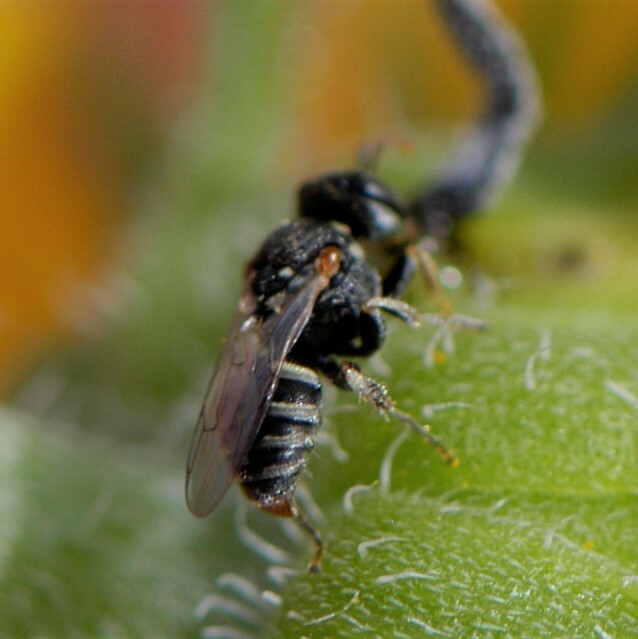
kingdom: Animalia
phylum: Arthropoda
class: Insecta
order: Hymenoptera
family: Crabronidae
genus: Oxybelus
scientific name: Oxybelus
